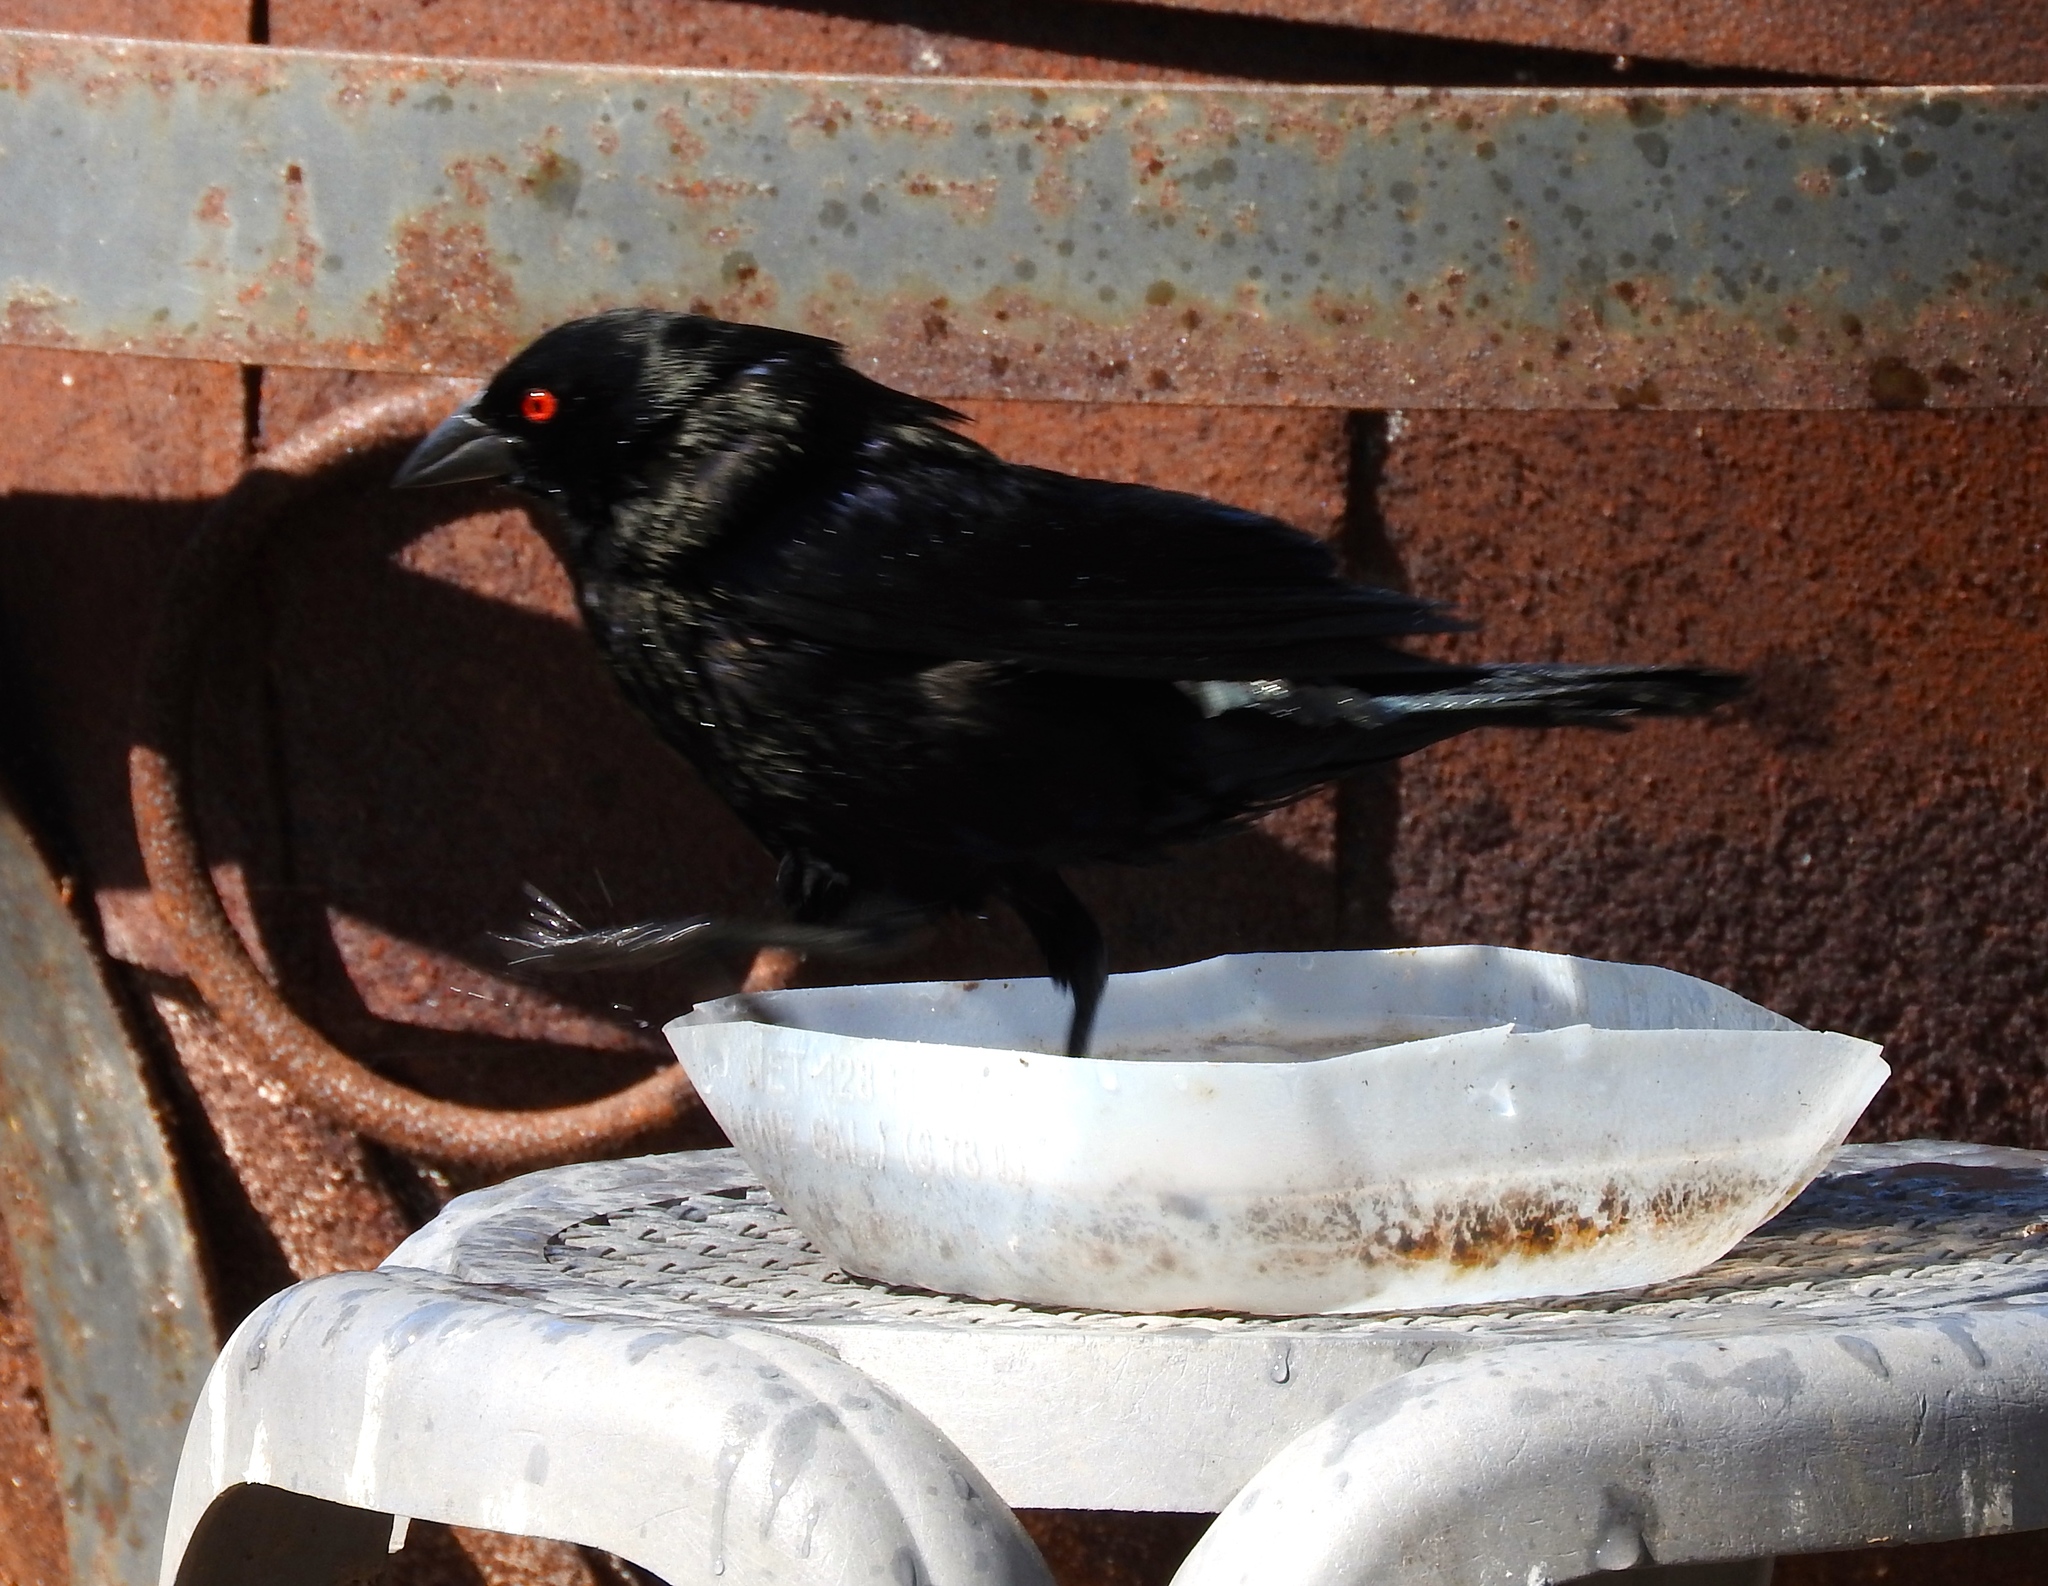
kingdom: Animalia
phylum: Chordata
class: Aves
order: Passeriformes
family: Icteridae
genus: Molothrus
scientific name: Molothrus aeneus
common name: Bronzed cowbird
